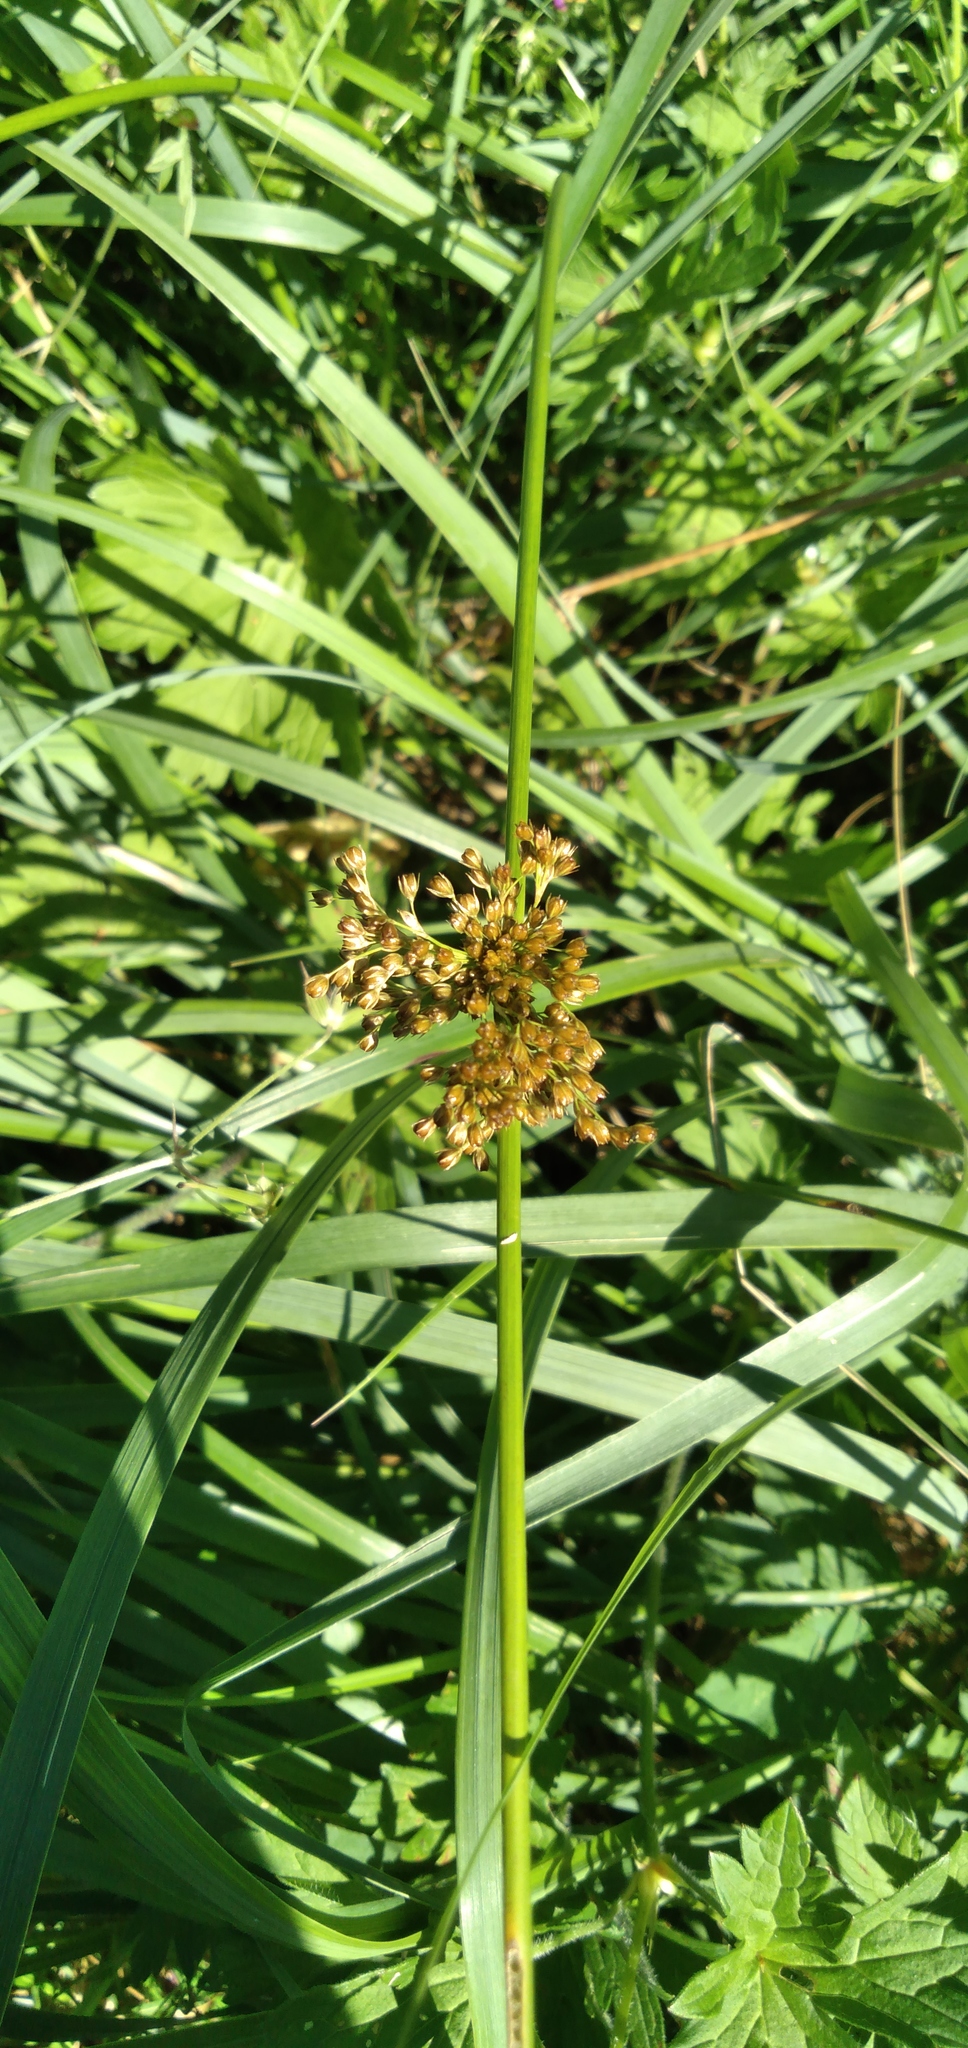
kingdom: Plantae
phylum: Tracheophyta
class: Liliopsida
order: Poales
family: Juncaceae
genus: Juncus
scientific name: Juncus effusus
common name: Soft rush
